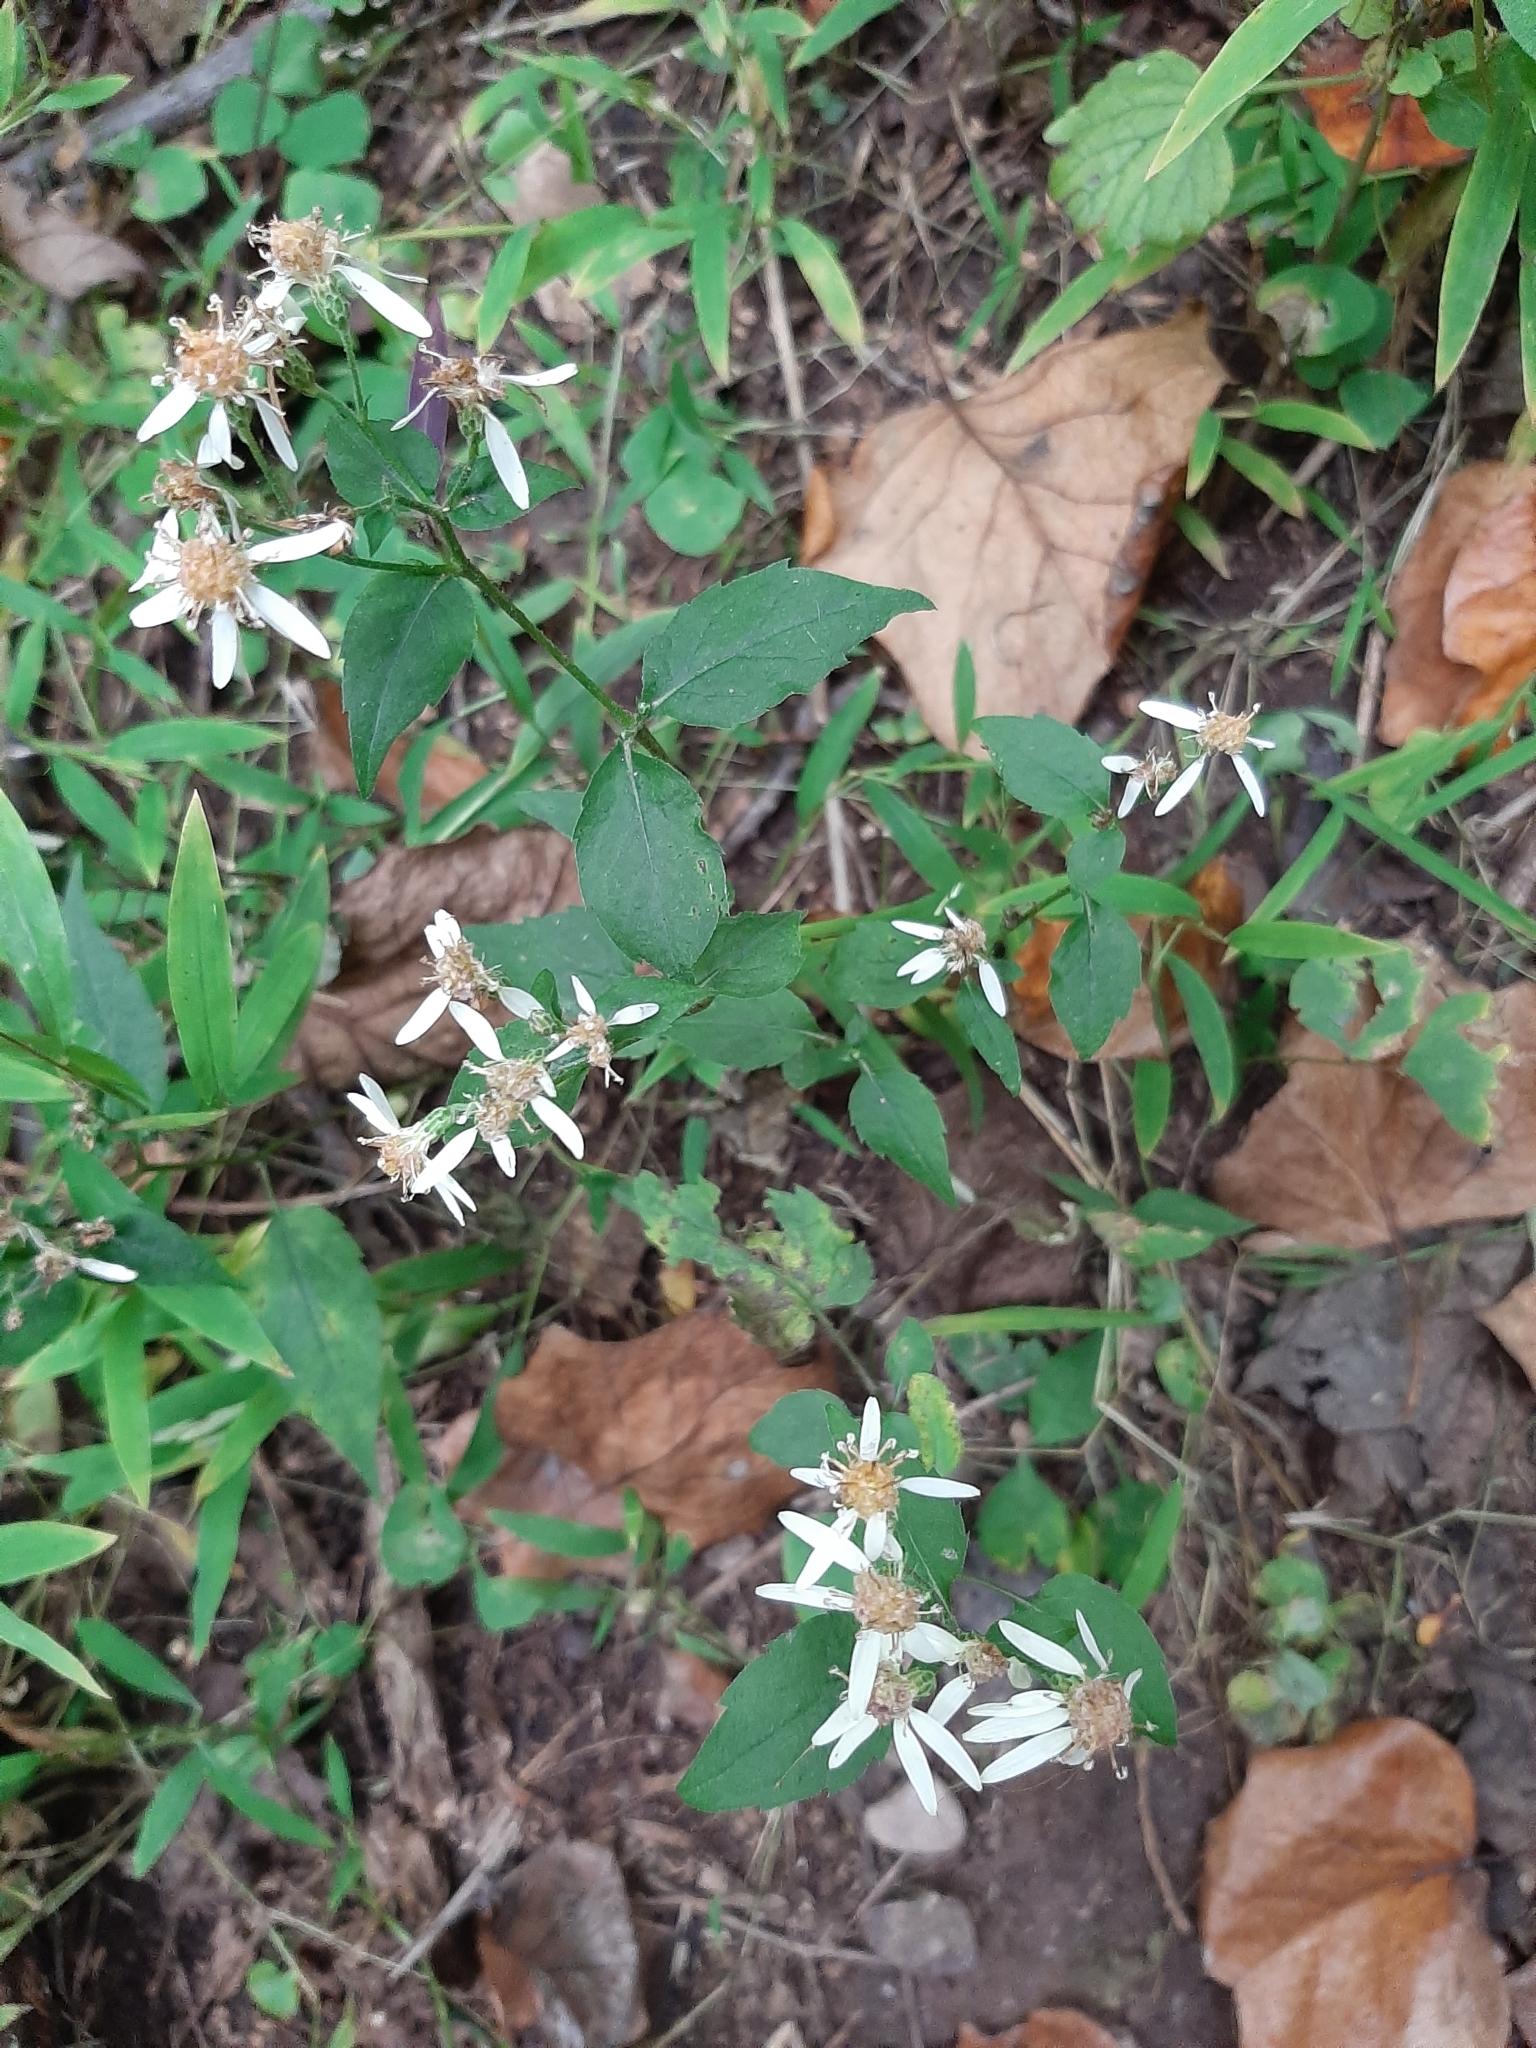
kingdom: Plantae
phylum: Tracheophyta
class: Magnoliopsida
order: Asterales
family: Asteraceae
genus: Eurybia
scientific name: Eurybia divaricata
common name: White wood aster
